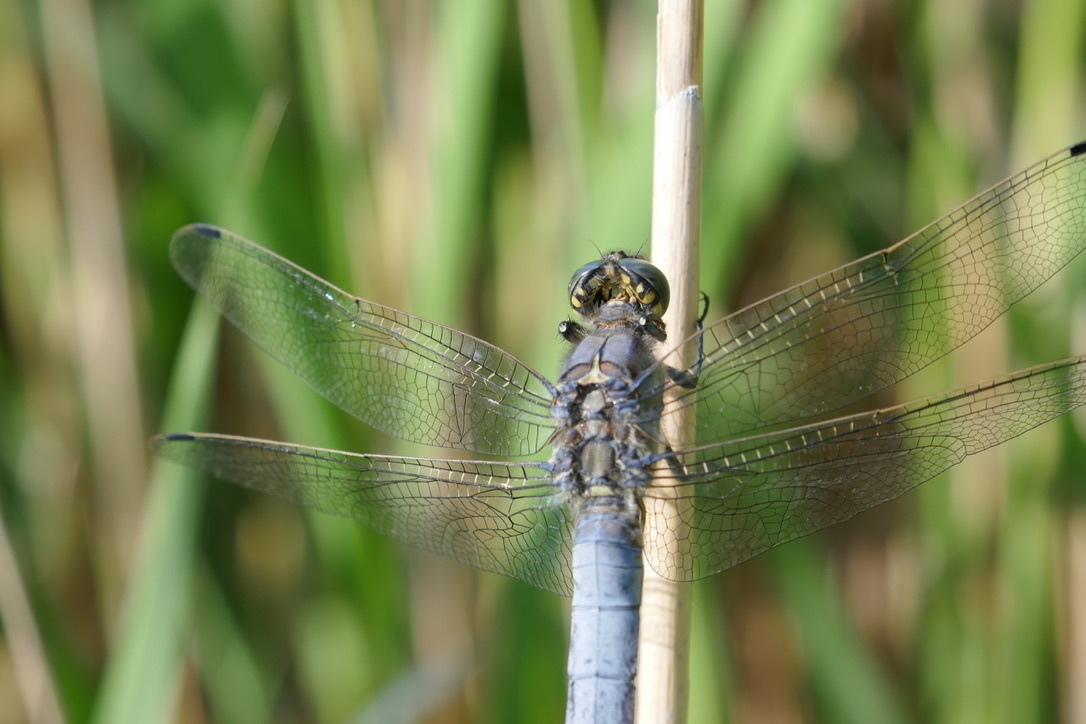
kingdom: Animalia
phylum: Arthropoda
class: Insecta
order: Odonata
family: Libellulidae
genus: Orthetrum
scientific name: Orthetrum cancellatum
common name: Black-tailed skimmer
